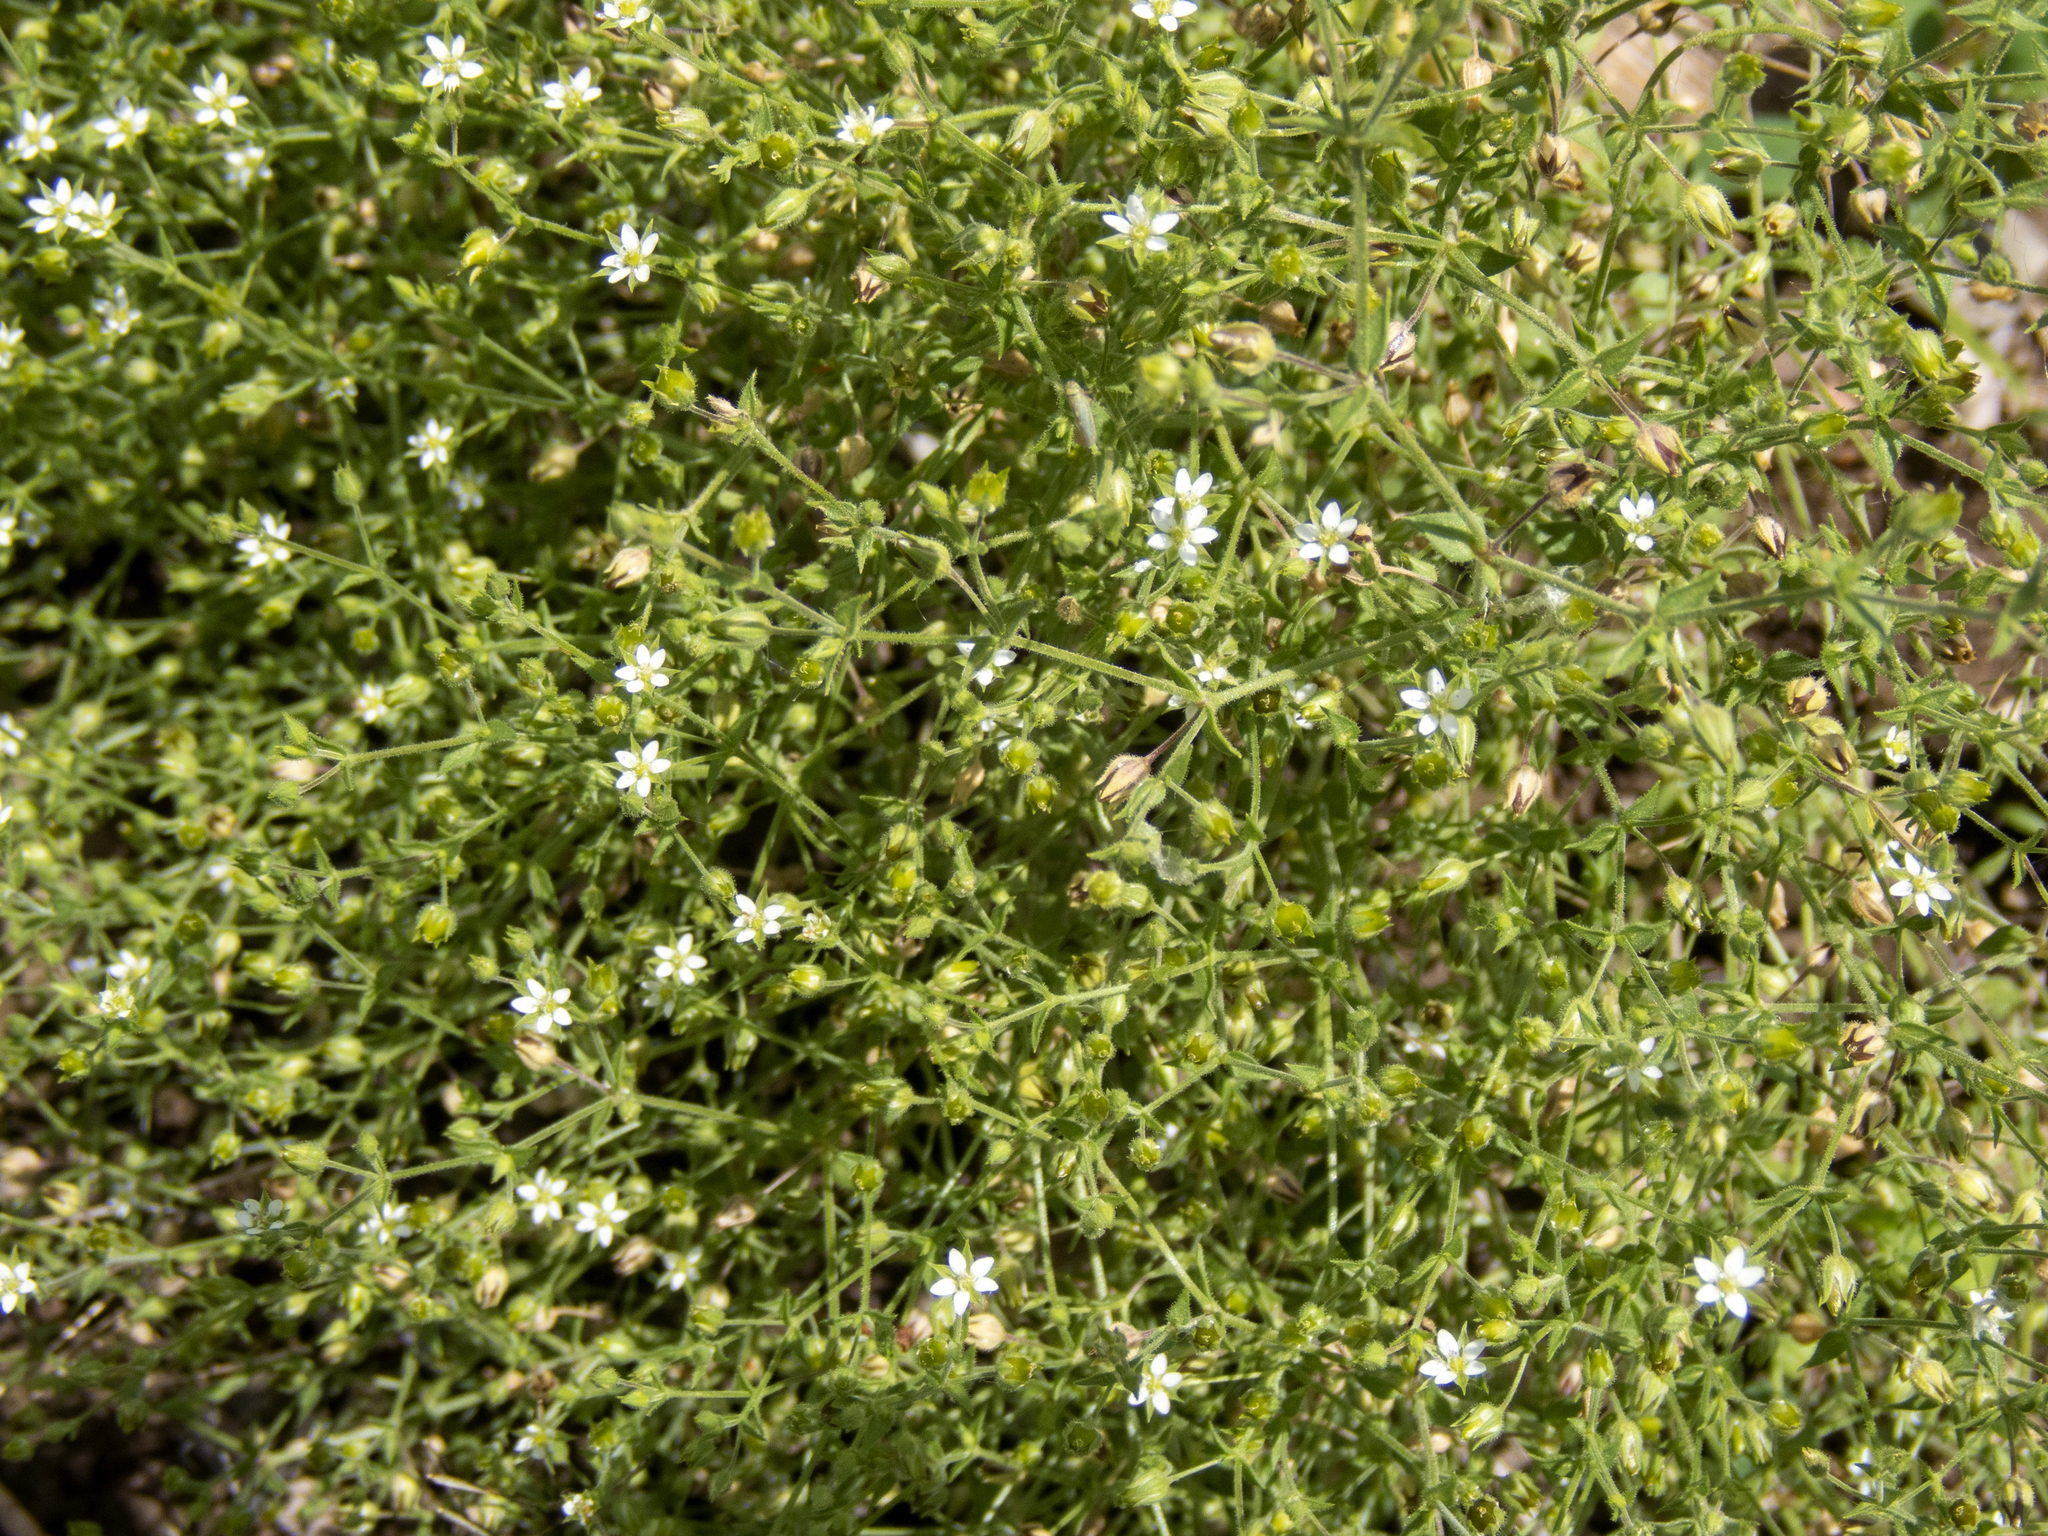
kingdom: Plantae
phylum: Tracheophyta
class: Magnoliopsida
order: Caryophyllales
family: Caryophyllaceae
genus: Arenaria
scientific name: Arenaria serpyllifolia
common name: Thyme-leaved sandwort
